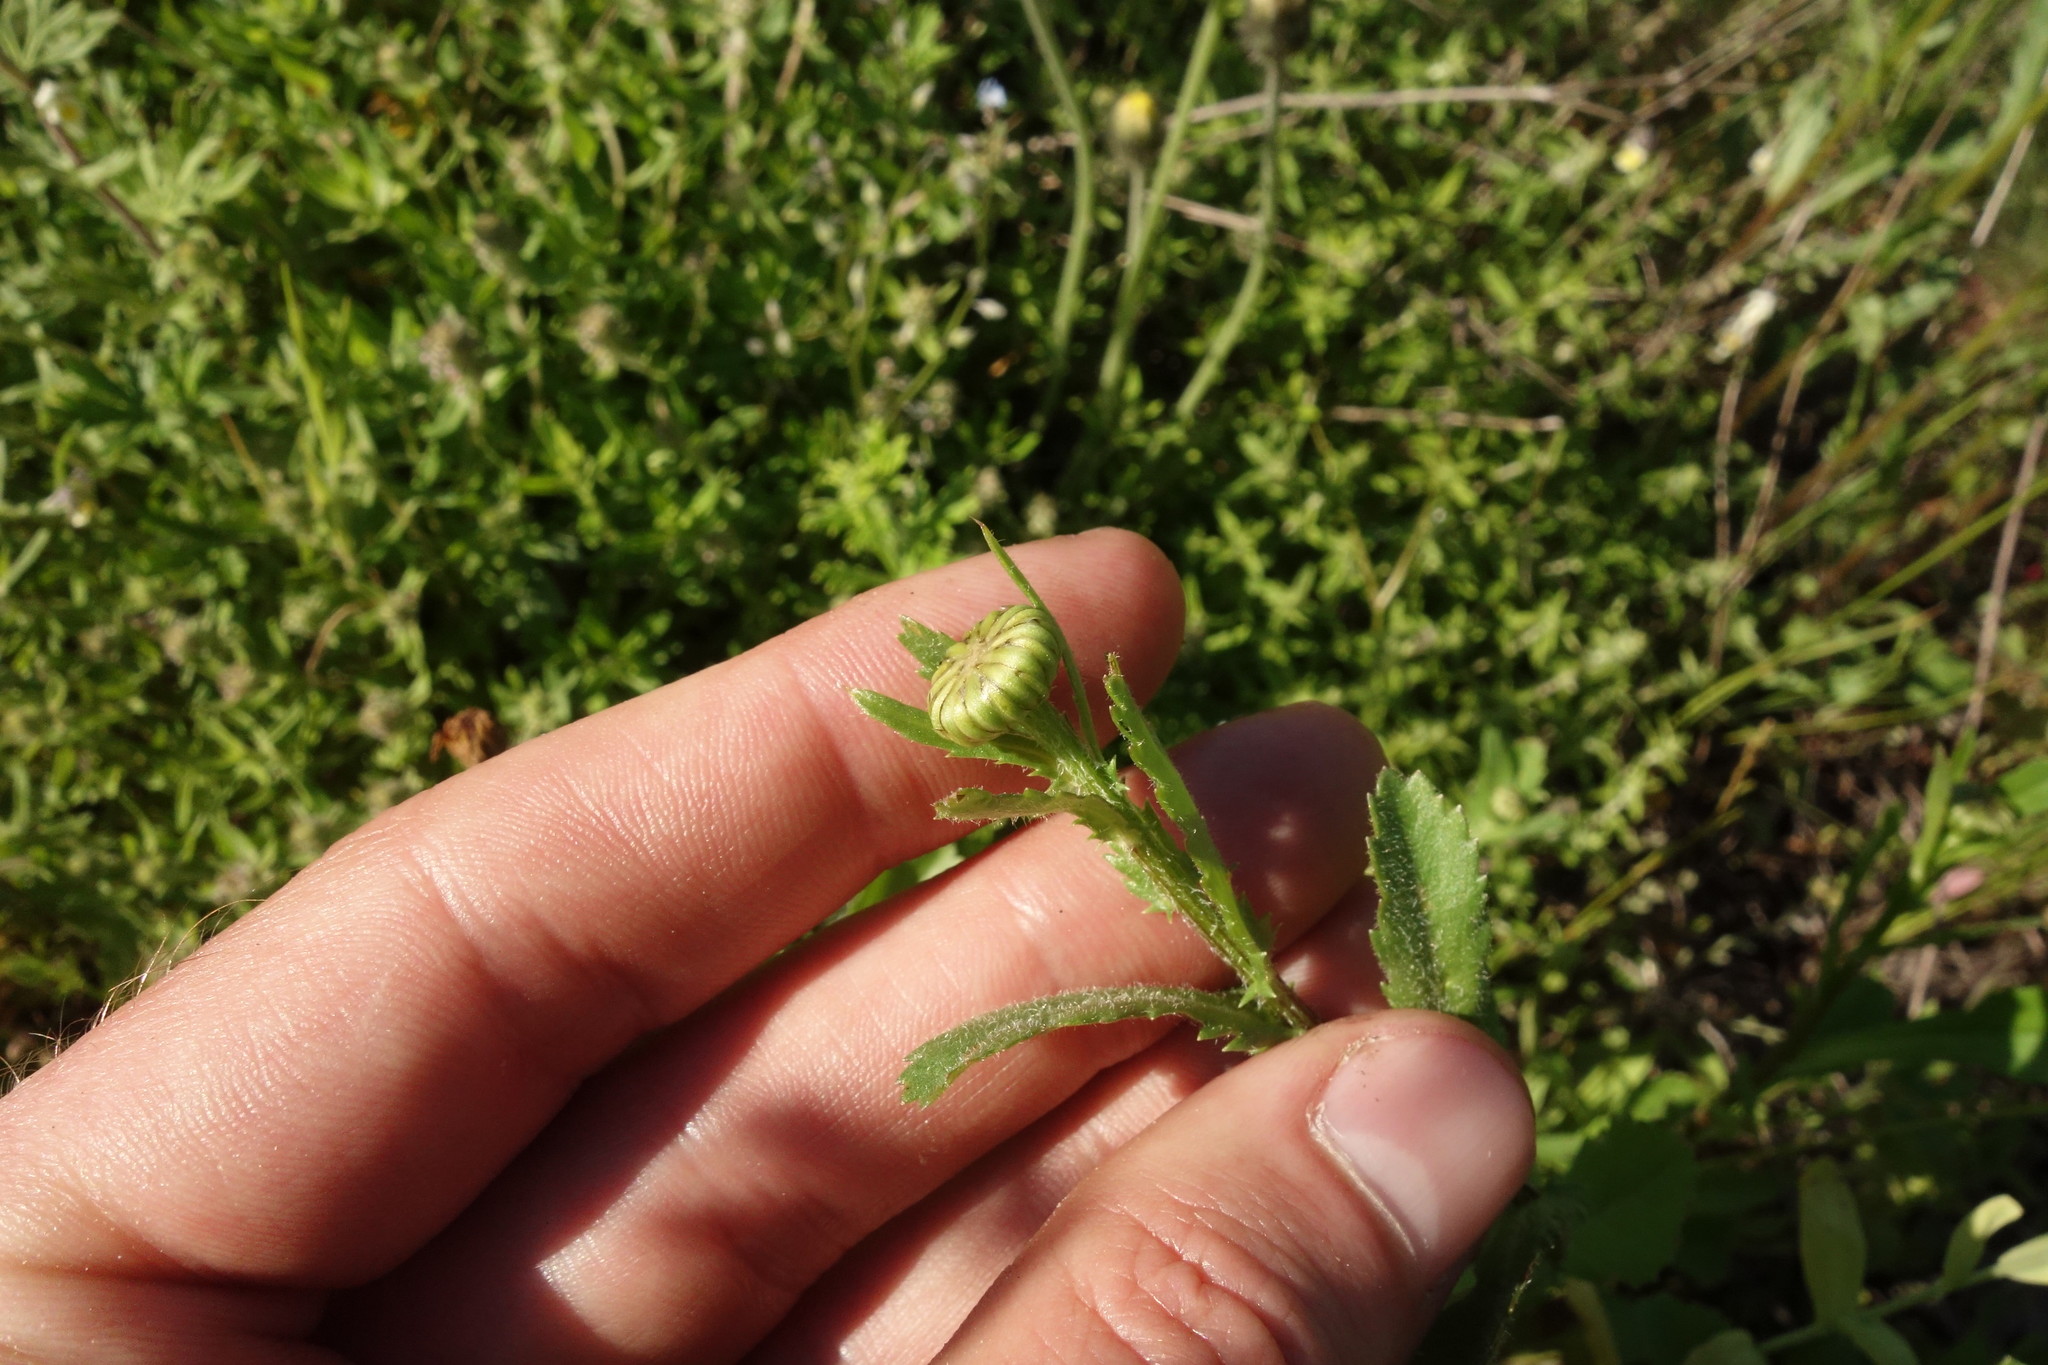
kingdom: Plantae
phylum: Tracheophyta
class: Magnoliopsida
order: Asterales
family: Asteraceae
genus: Leucanthemum
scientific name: Leucanthemum vulgare
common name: Oxeye daisy
